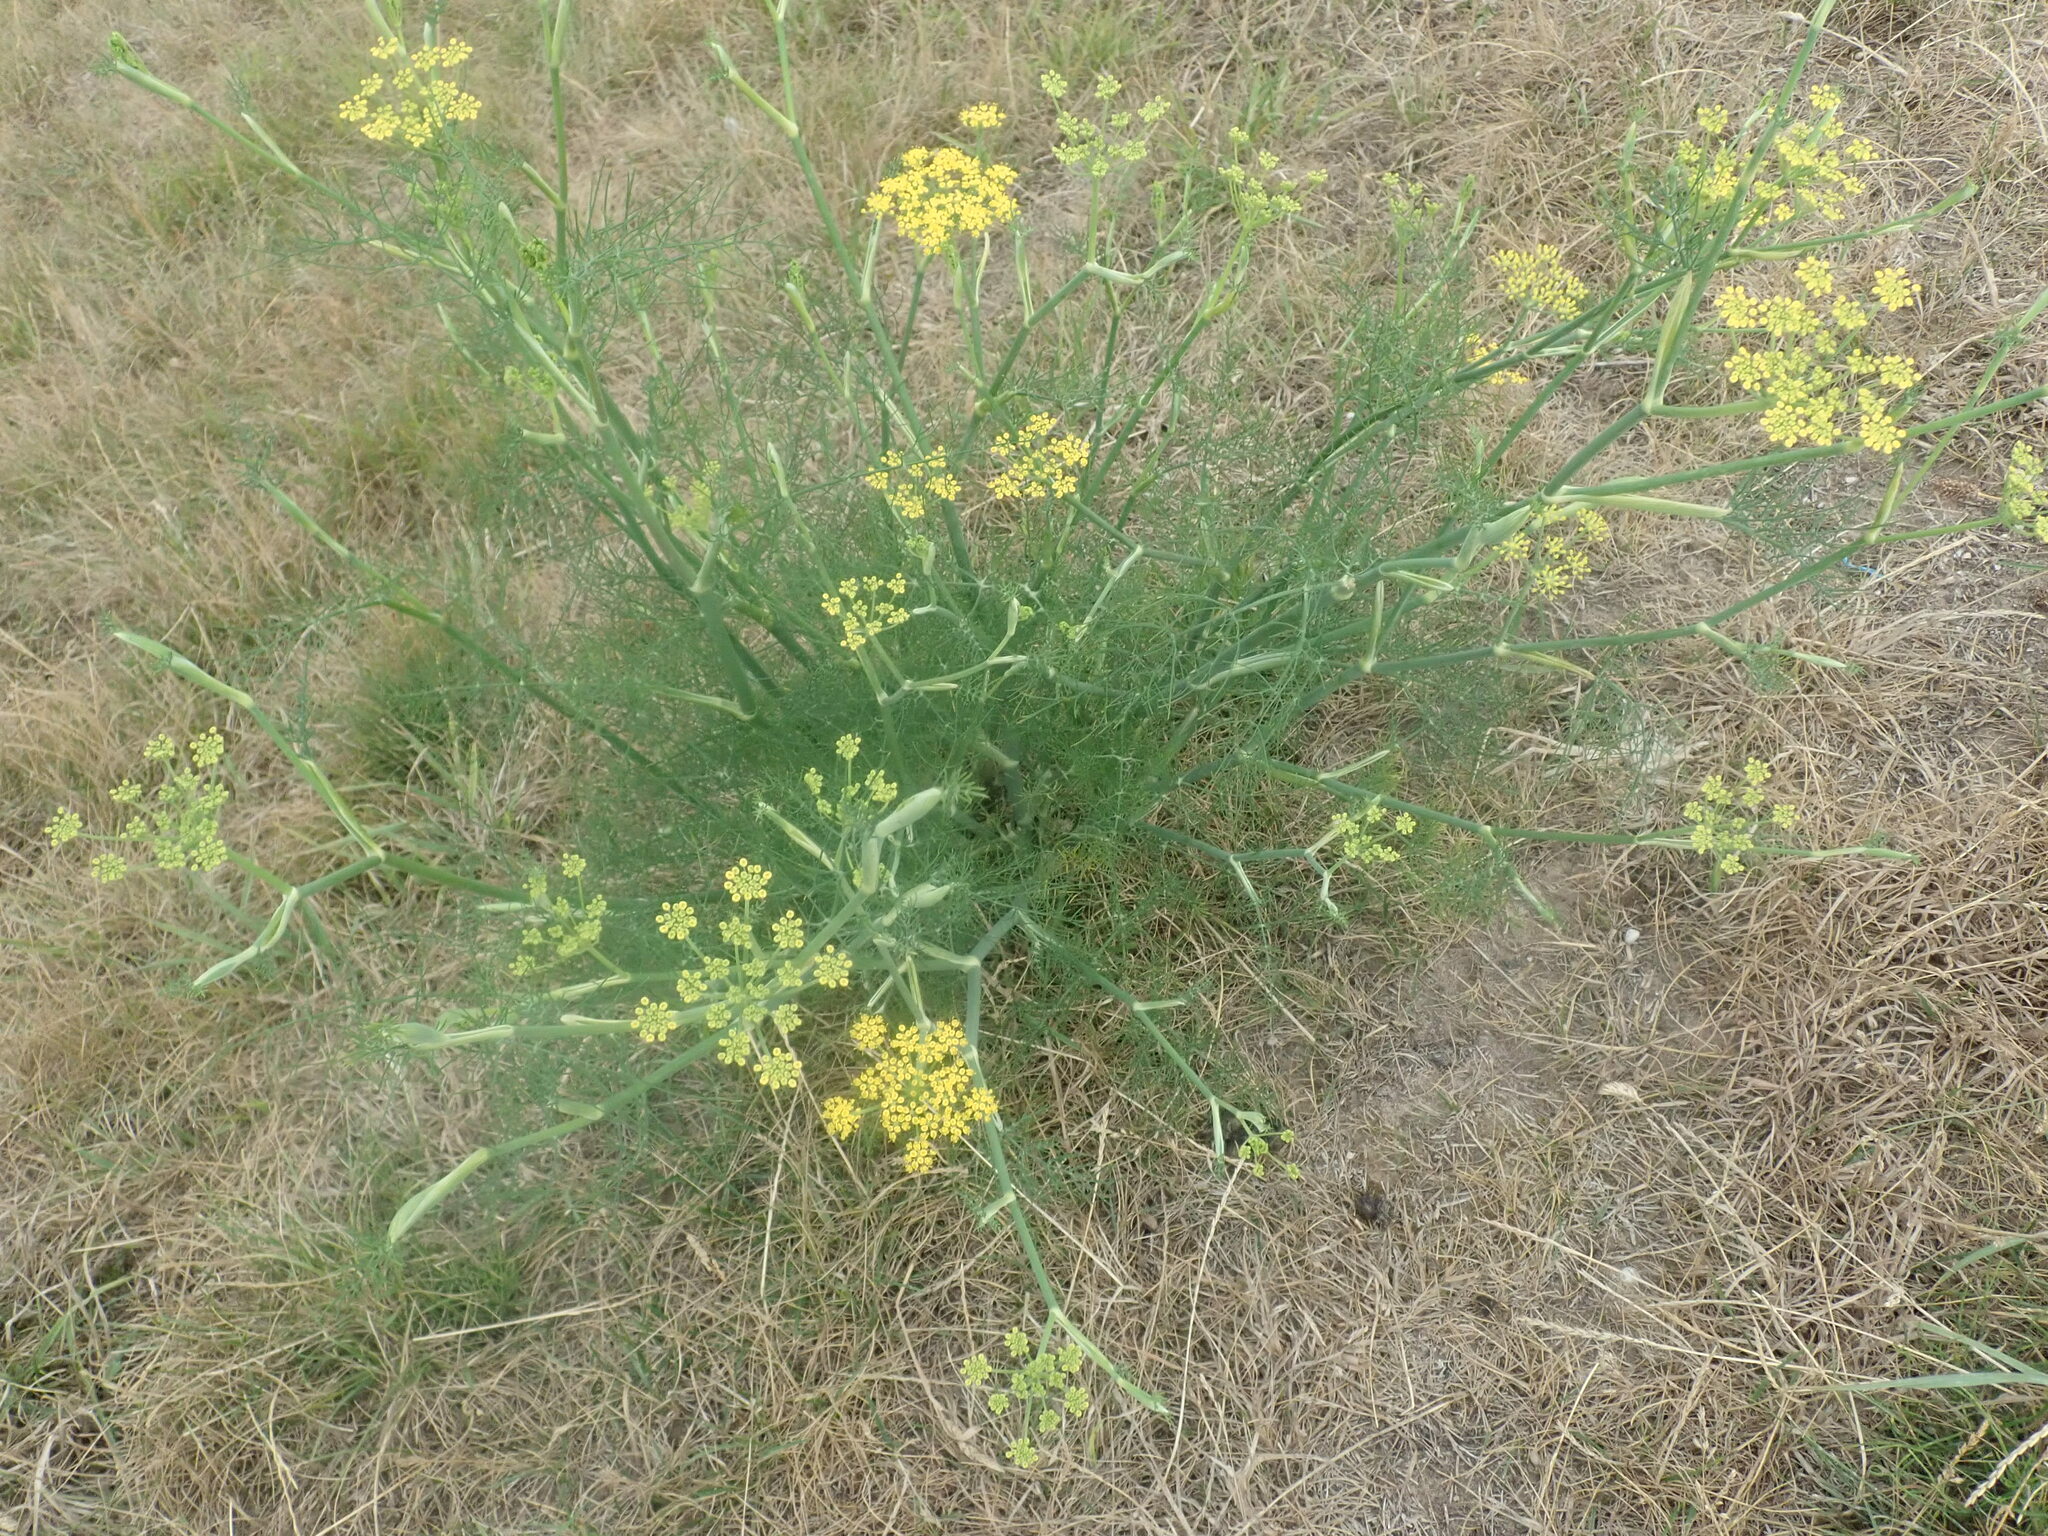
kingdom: Plantae
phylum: Tracheophyta
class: Magnoliopsida
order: Apiales
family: Apiaceae
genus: Foeniculum
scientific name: Foeniculum vulgare
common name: Fennel
